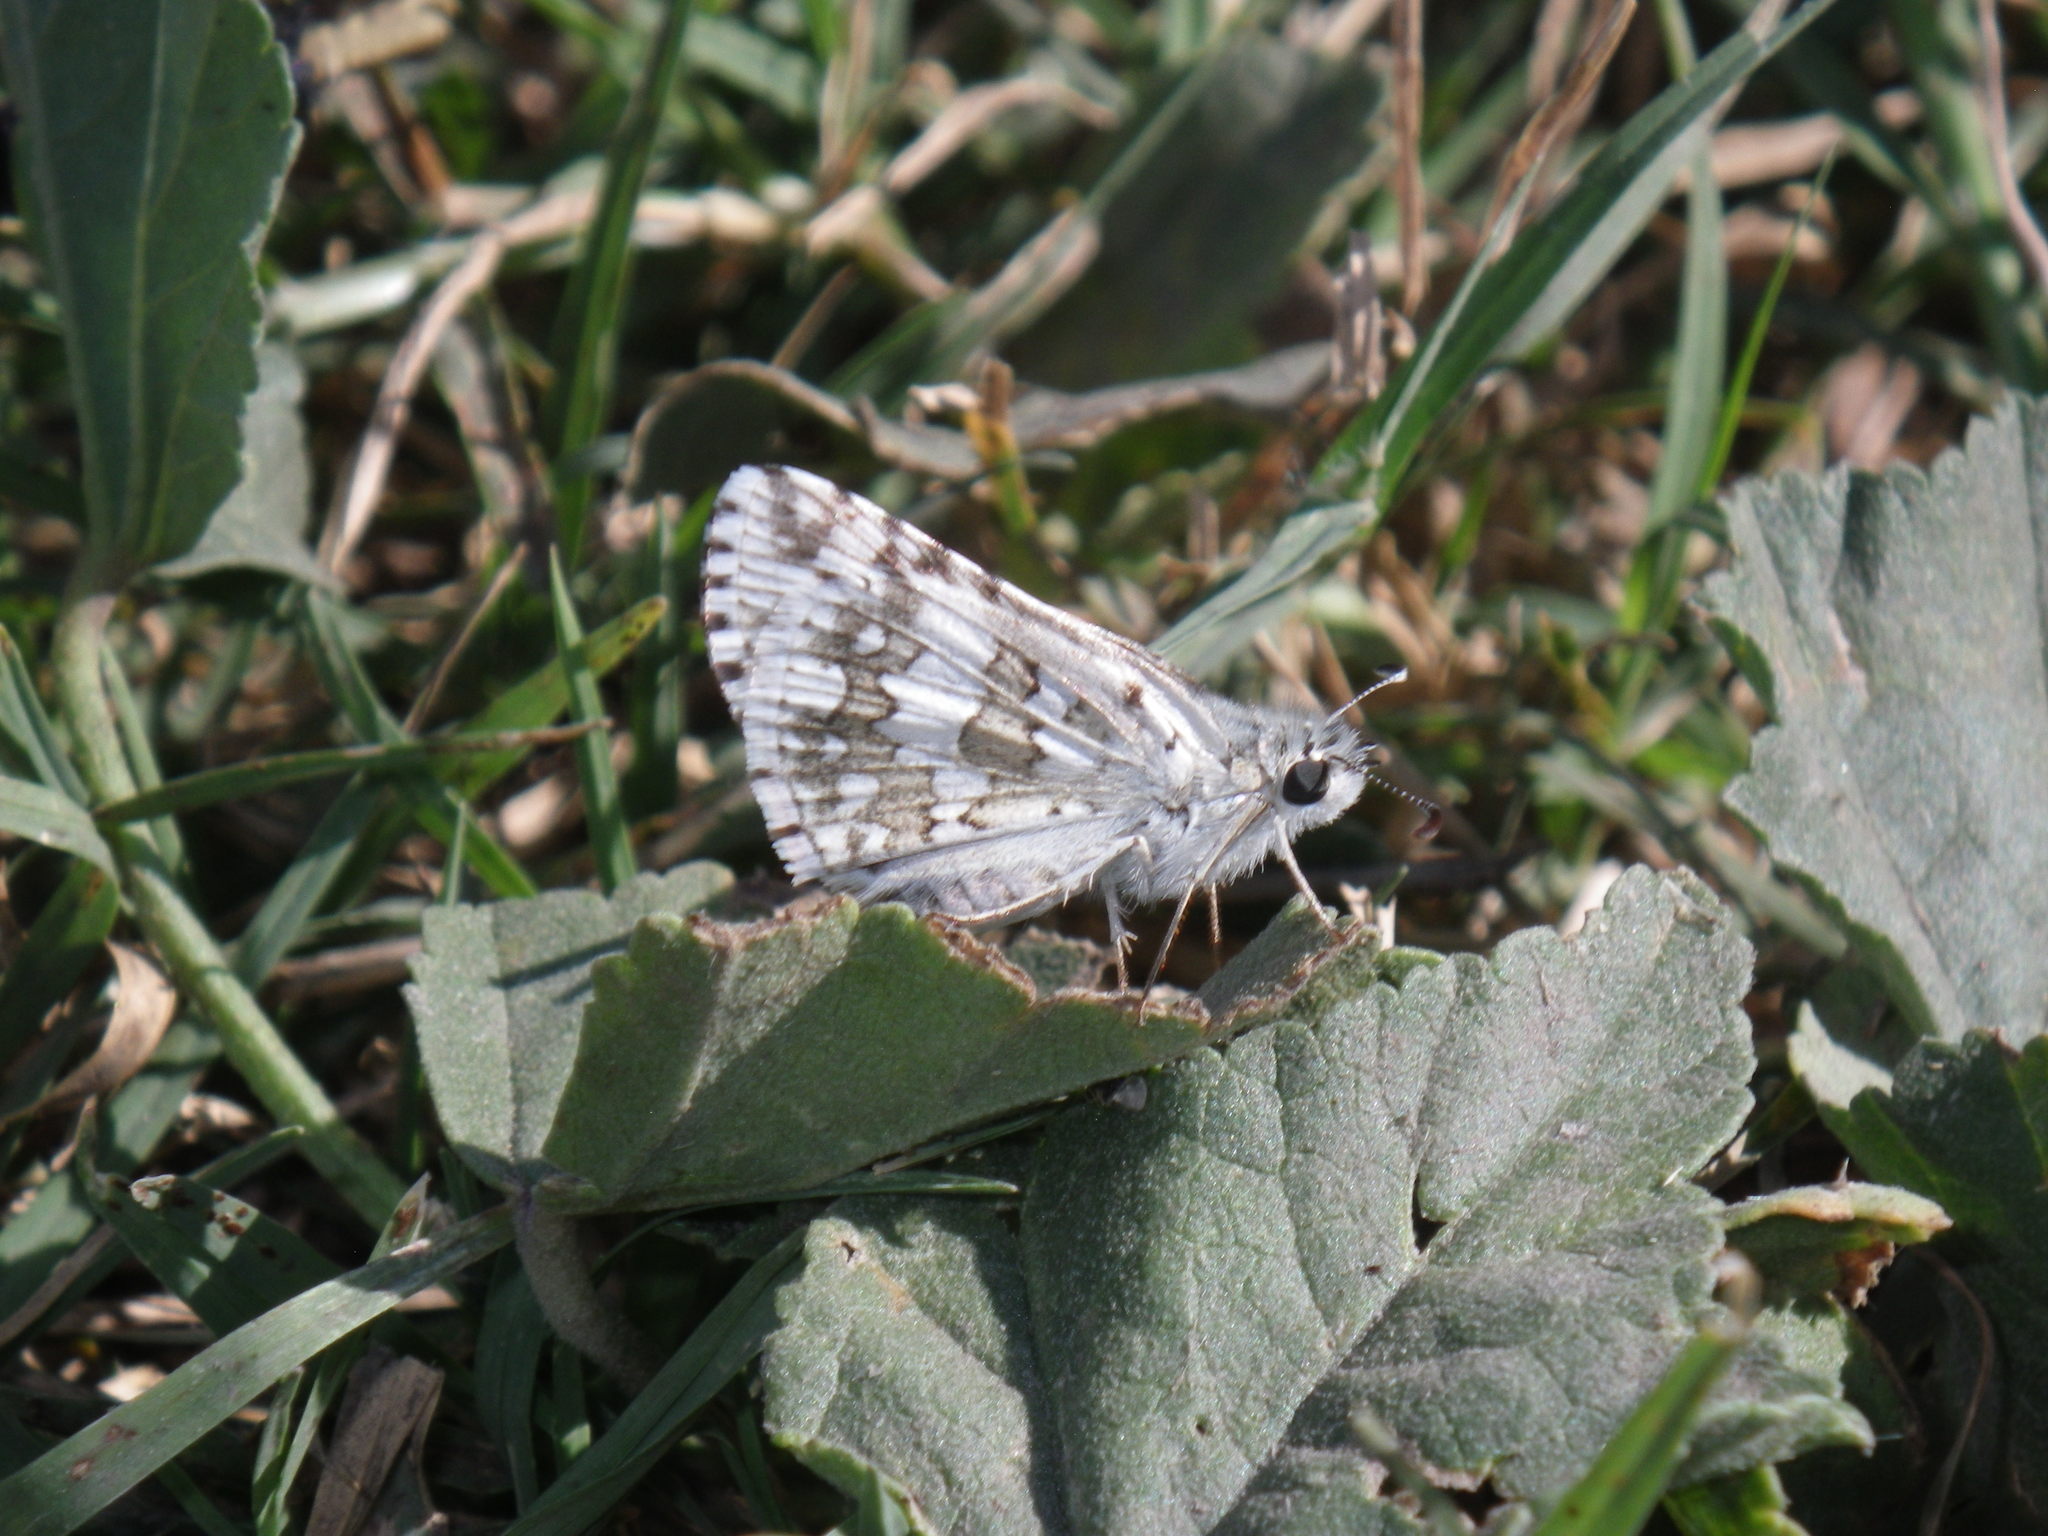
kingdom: Animalia
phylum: Arthropoda
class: Insecta
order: Lepidoptera
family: Hesperiidae
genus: Burnsius
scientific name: Burnsius communis
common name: Common checkered-skipper
